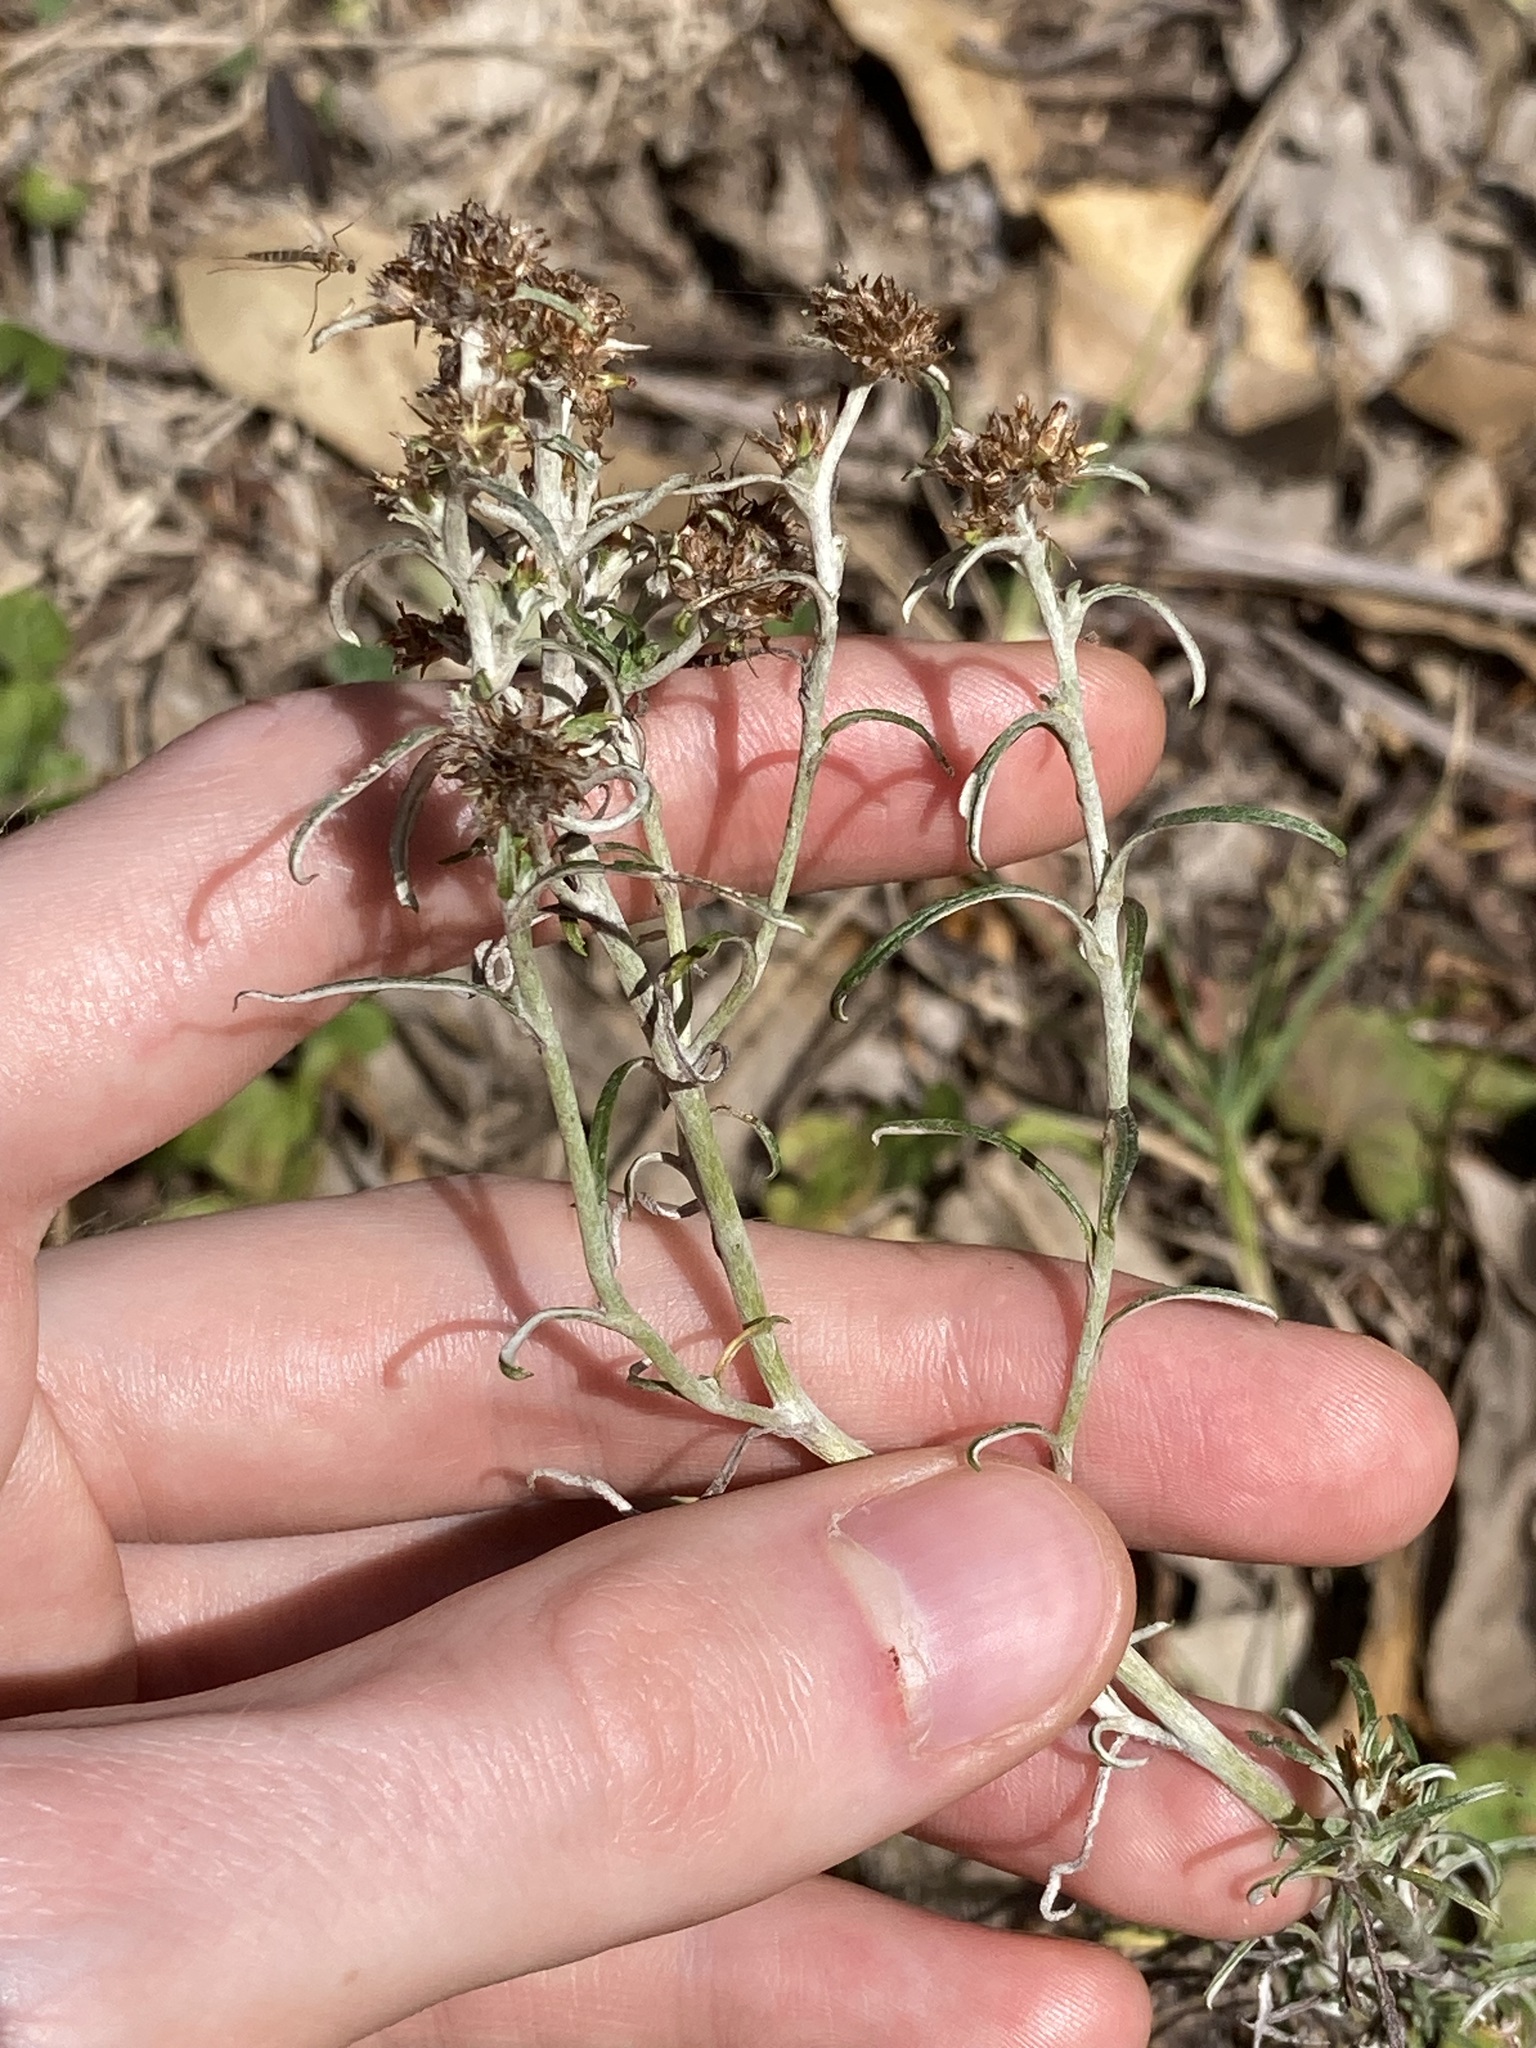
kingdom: Plantae
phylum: Tracheophyta
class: Magnoliopsida
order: Asterales
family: Asteraceae
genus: Euchiton
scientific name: Euchiton sphaericus
